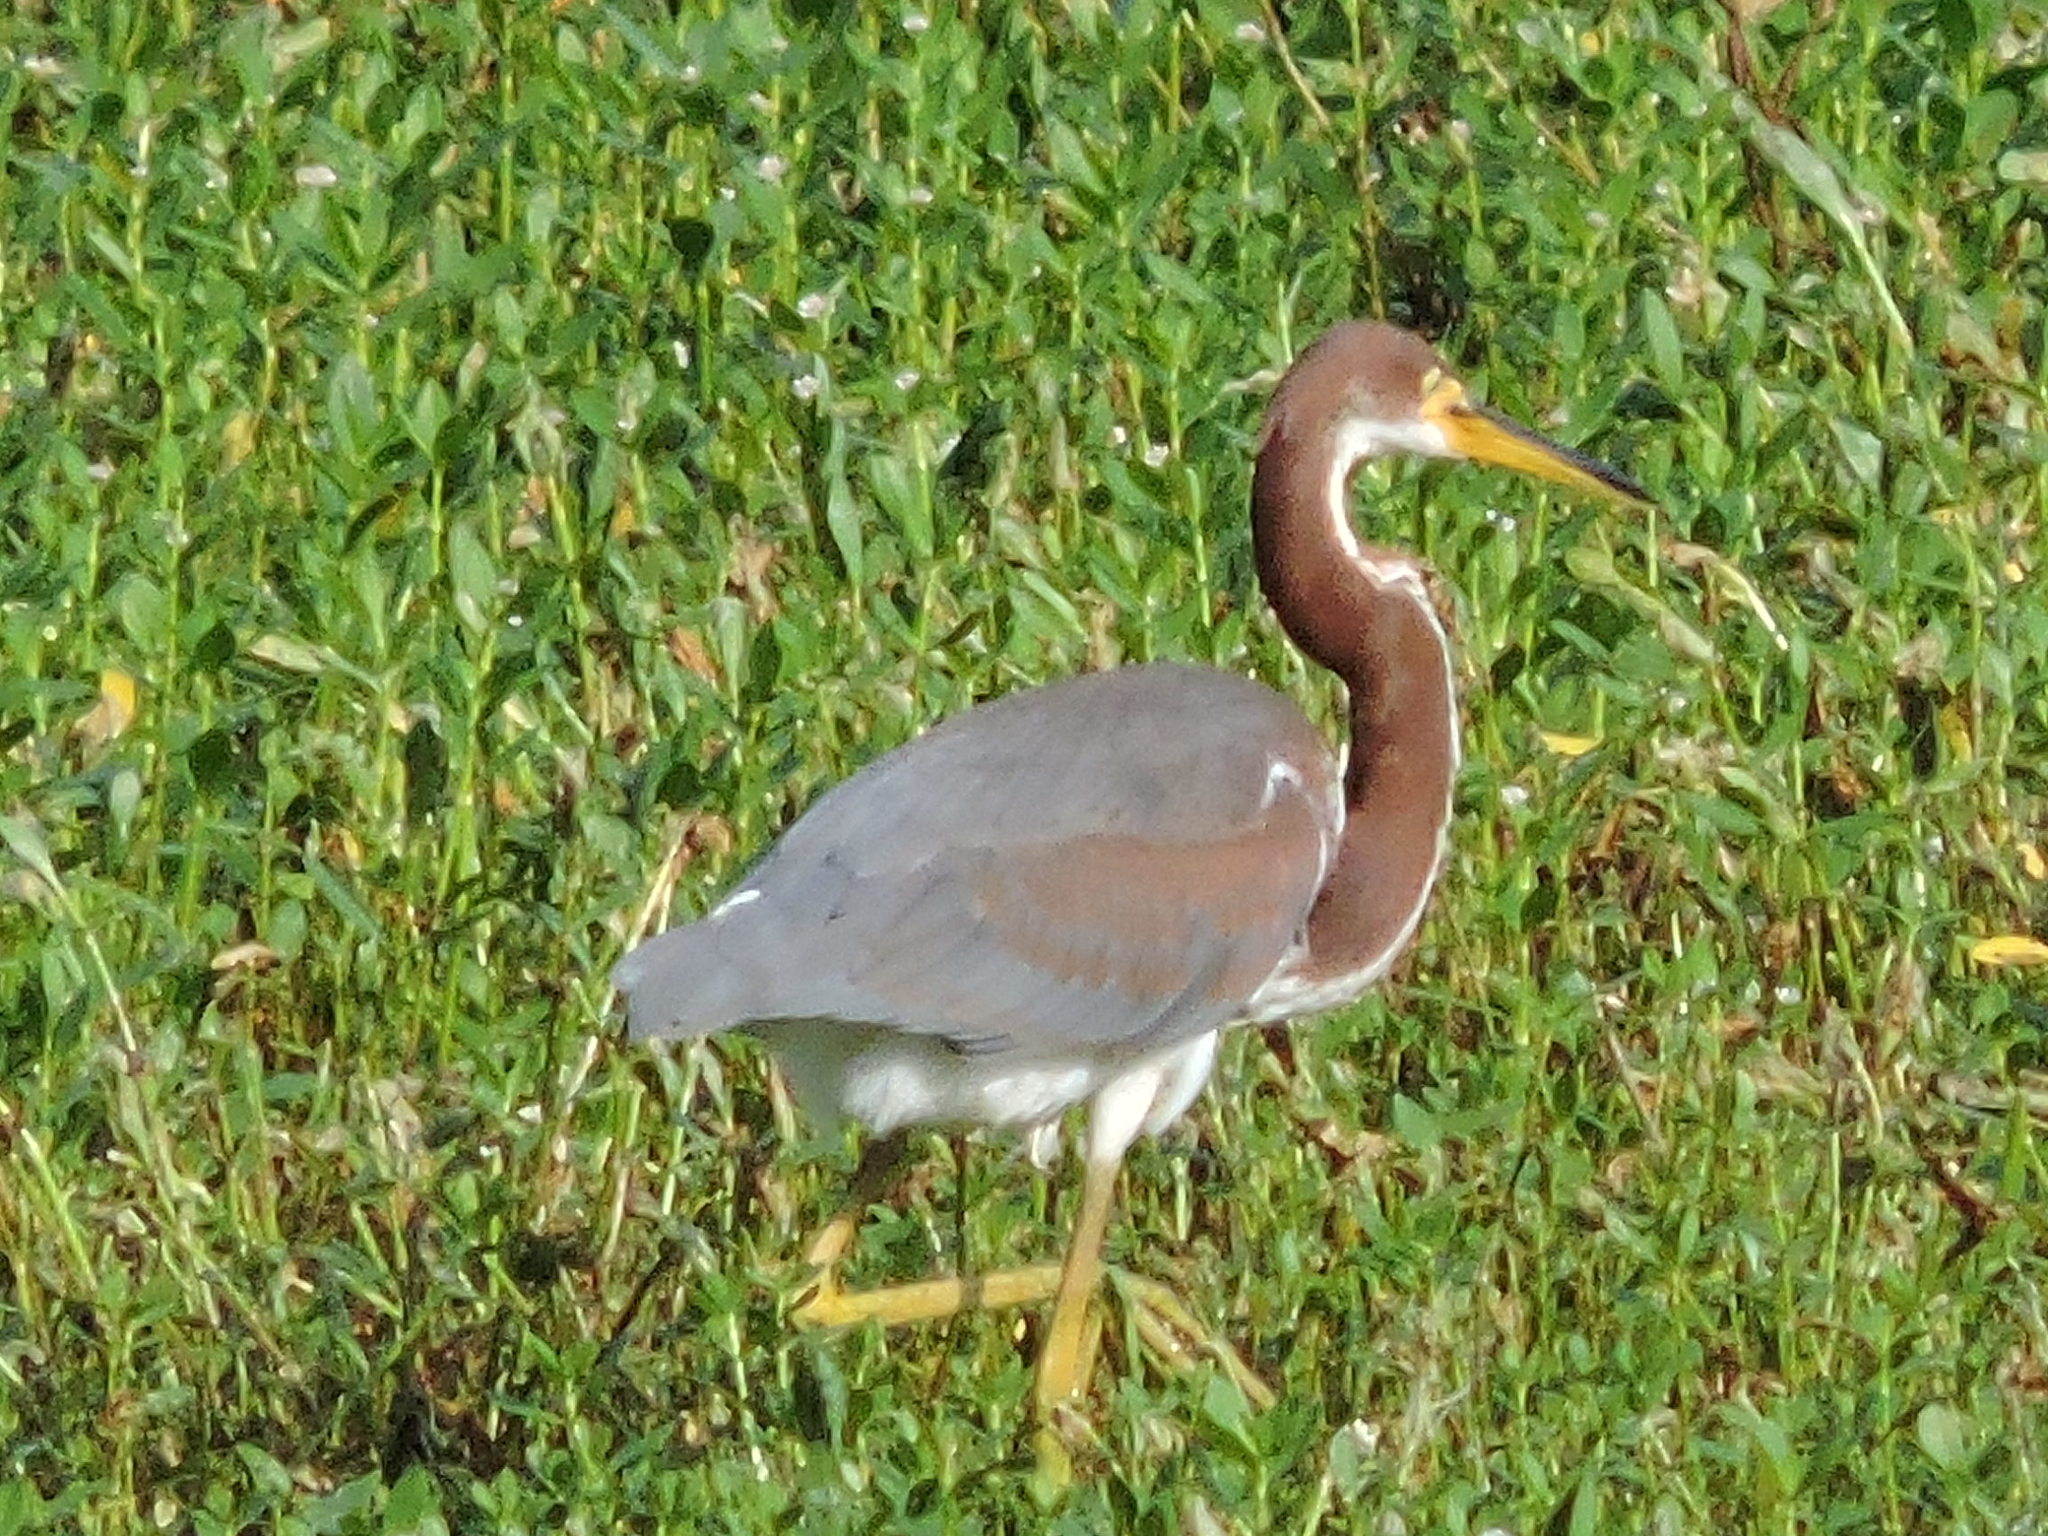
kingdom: Animalia
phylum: Chordata
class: Aves
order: Pelecaniformes
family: Ardeidae
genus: Egretta
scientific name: Egretta tricolor
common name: Tricolored heron
